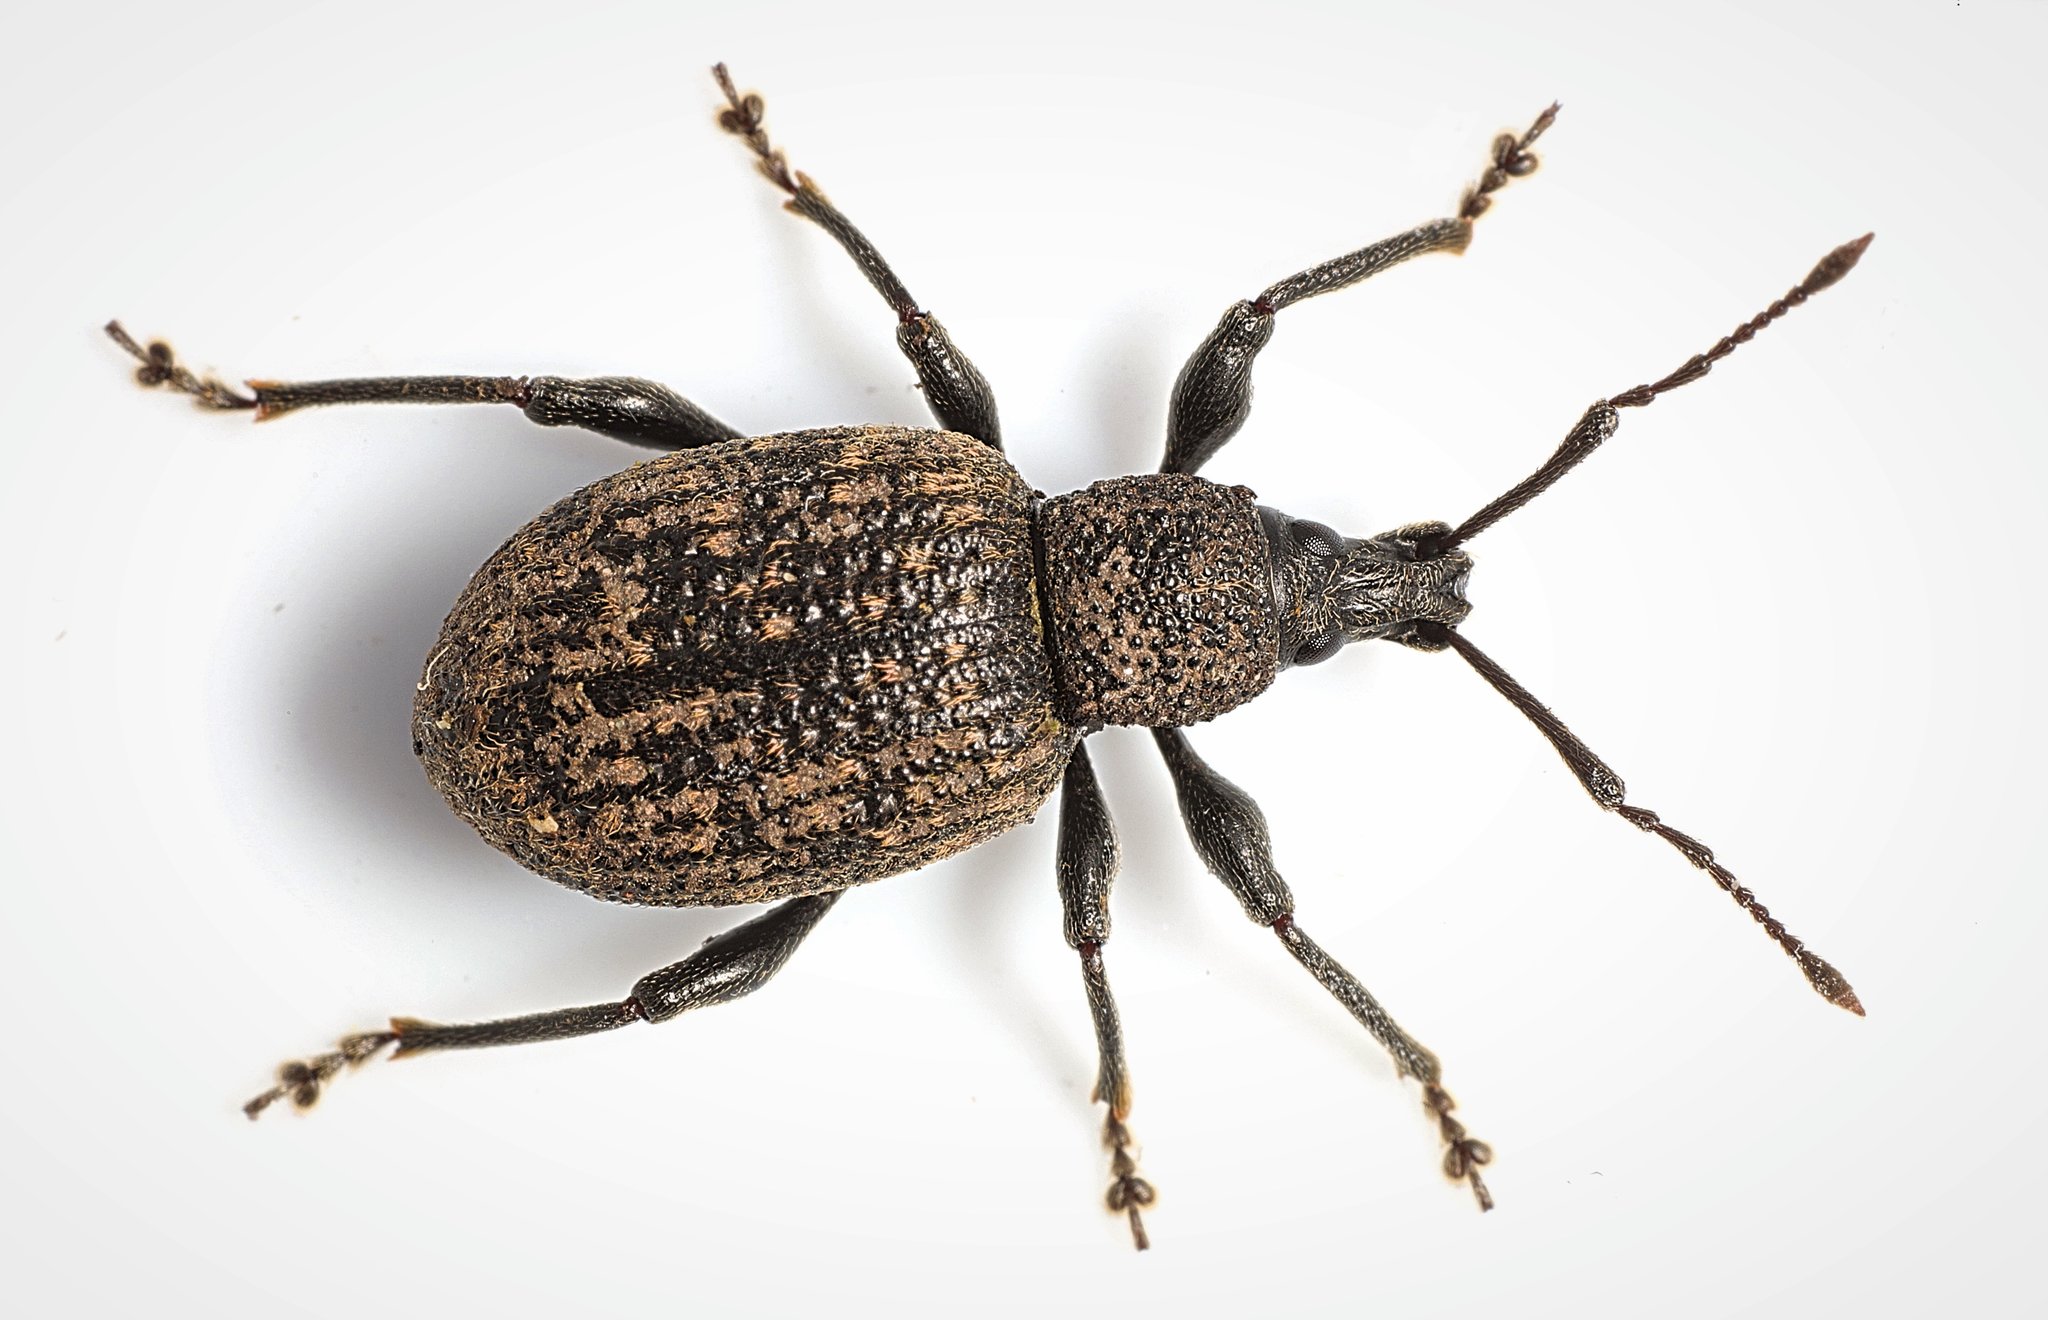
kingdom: Animalia
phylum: Arthropoda
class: Insecta
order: Coleoptera
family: Curculionidae
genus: Otiorhynchus
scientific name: Otiorhynchus sulcatus
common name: Black vine weevil
